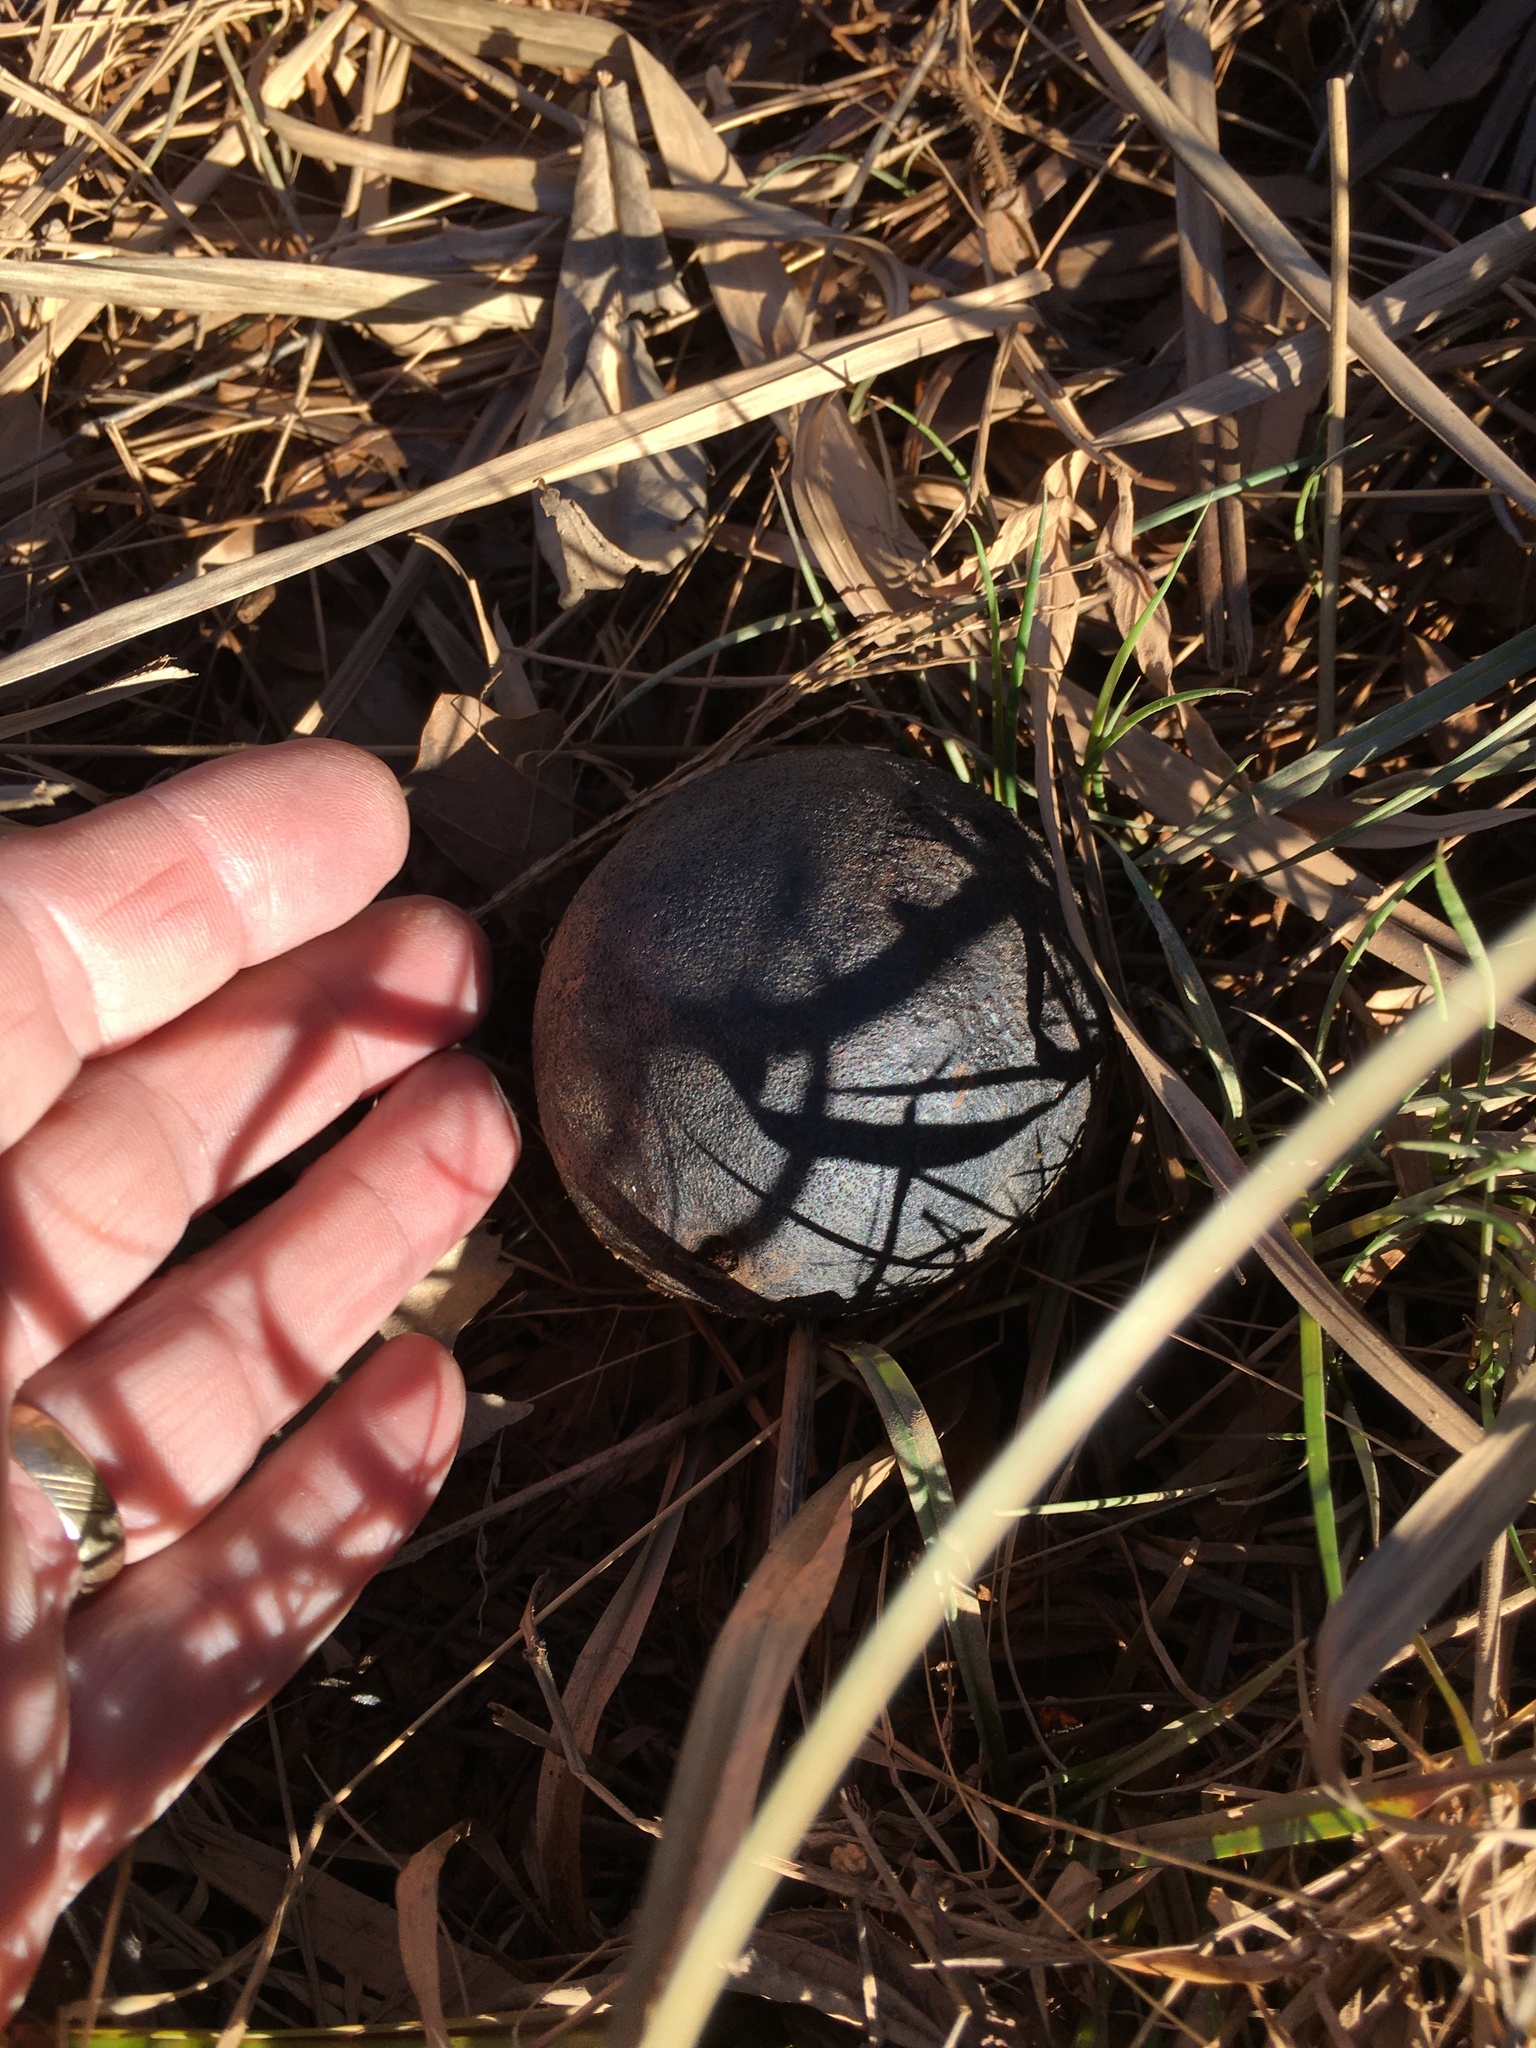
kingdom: Plantae
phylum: Tracheophyta
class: Magnoliopsida
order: Fagales
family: Juglandaceae
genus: Juglans
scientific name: Juglans nigra
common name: Black walnut
